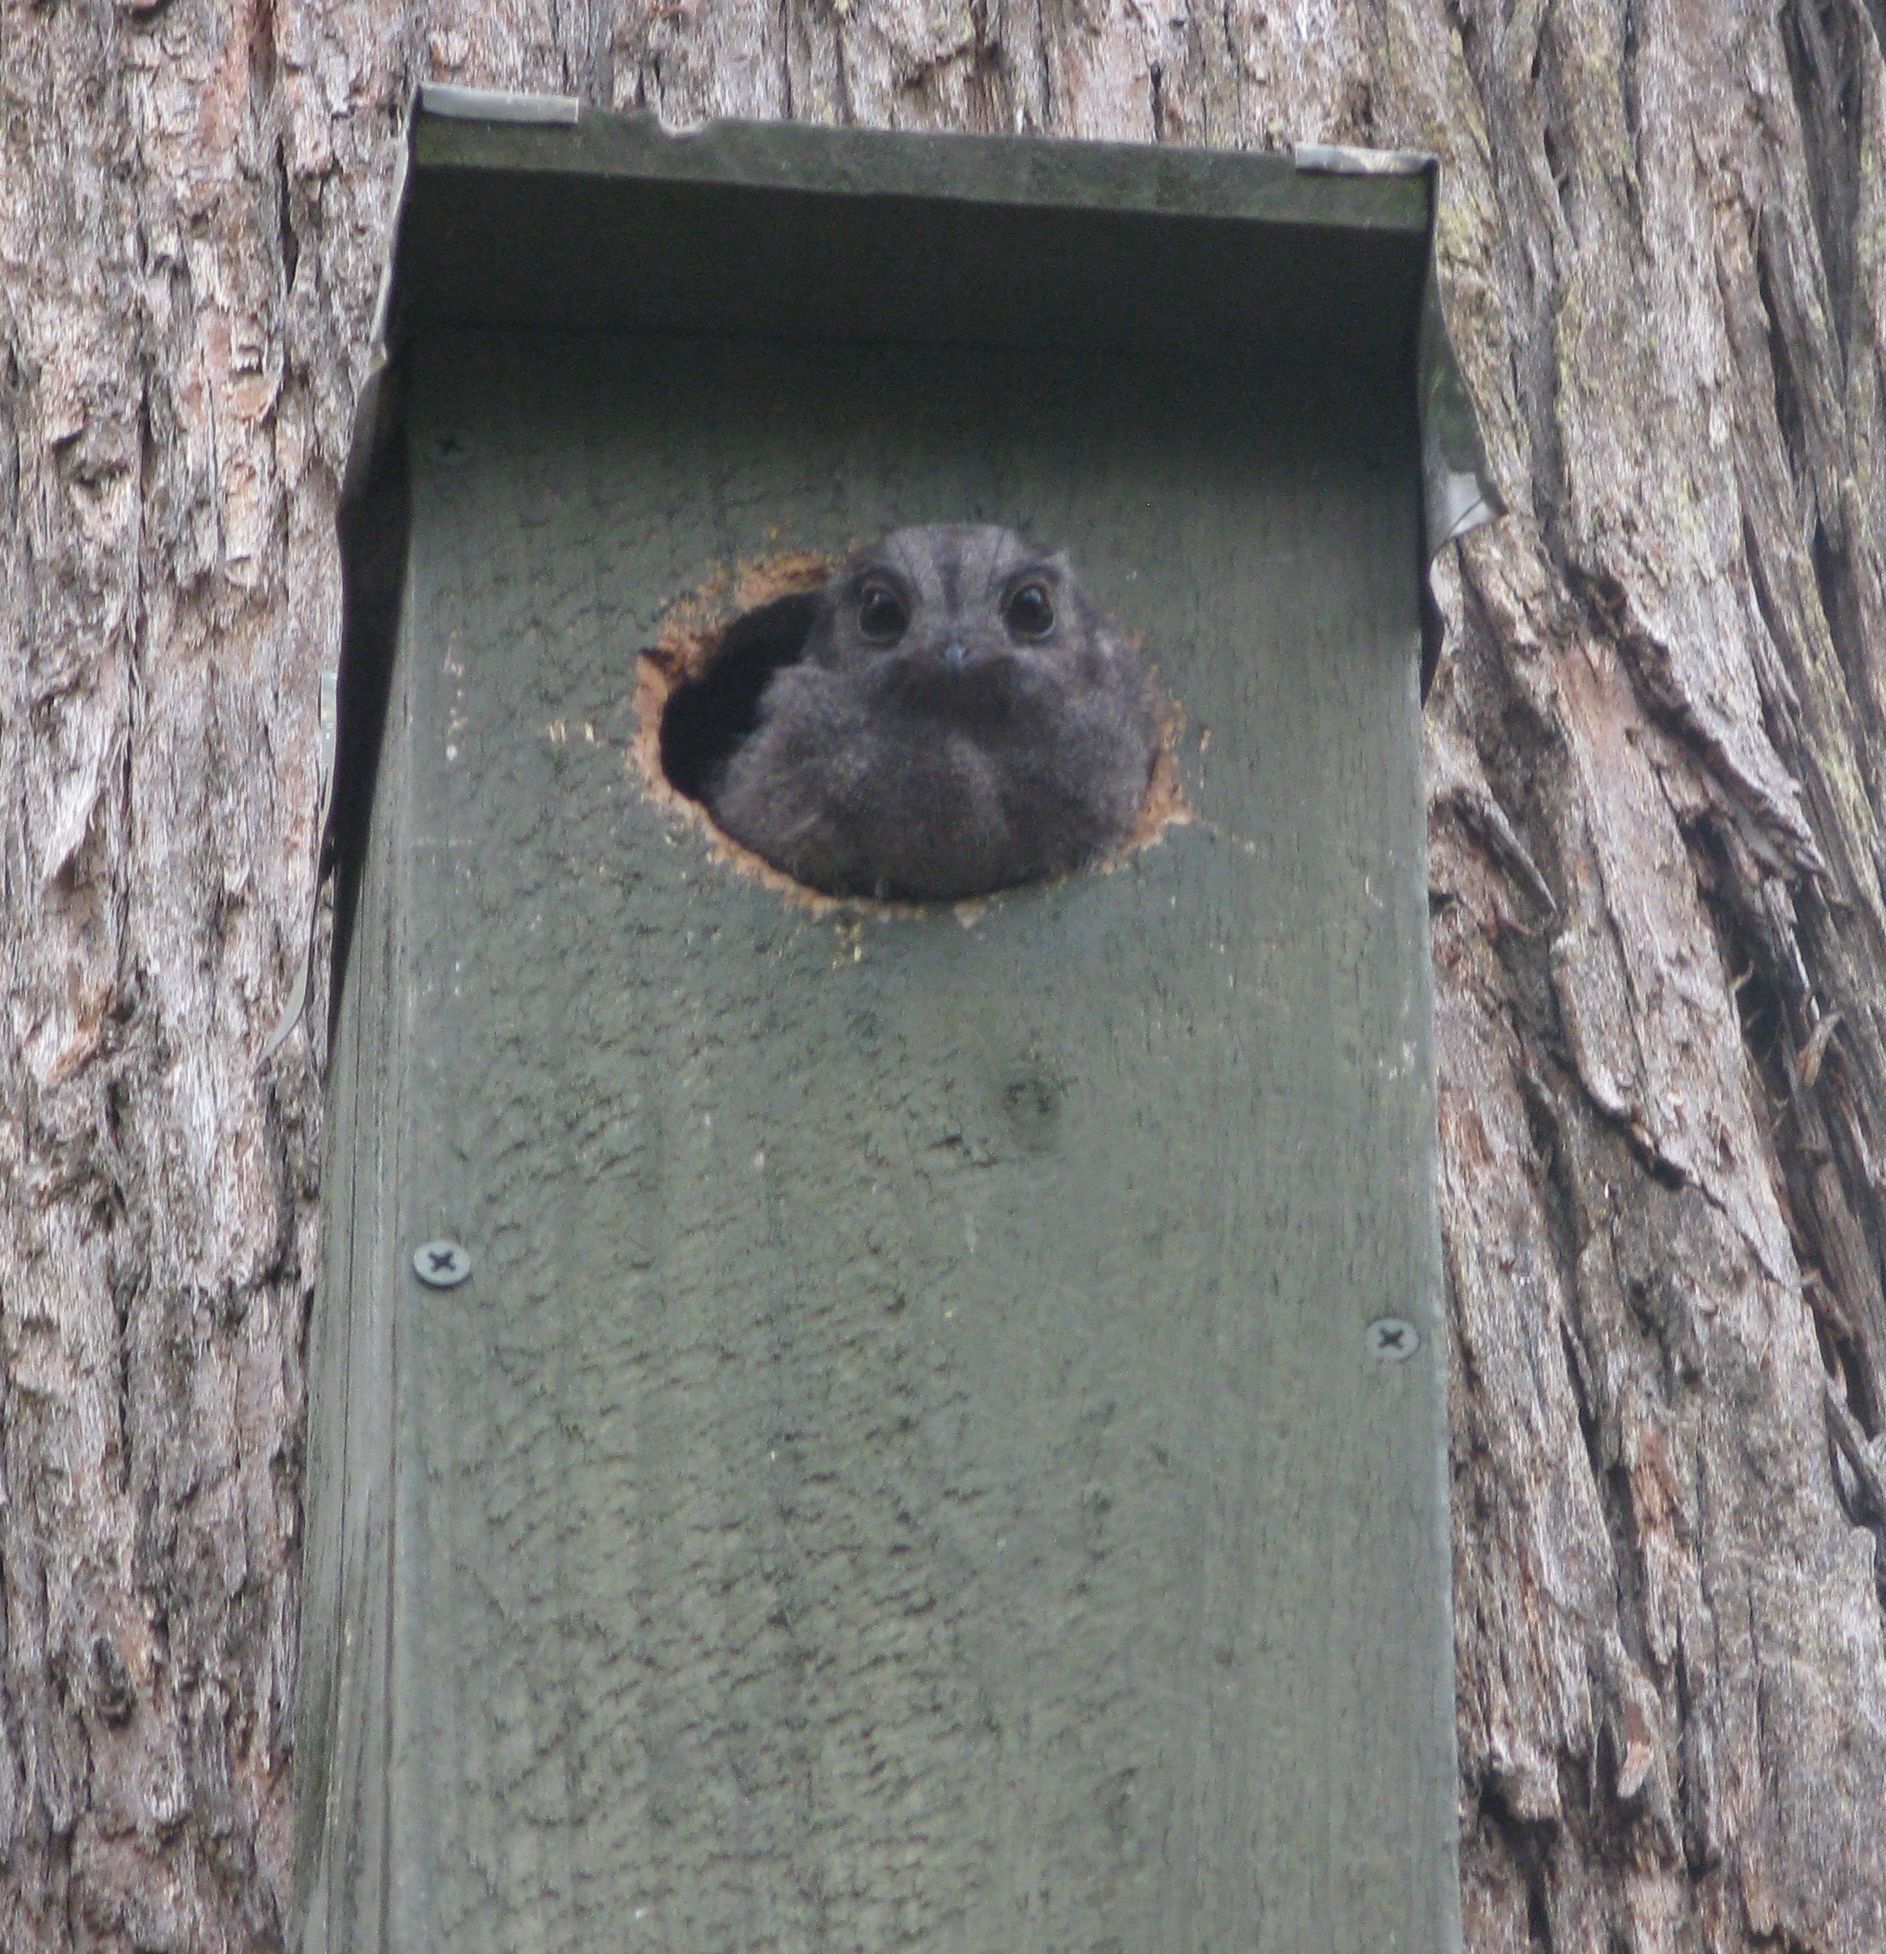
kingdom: Animalia
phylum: Chordata
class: Aves
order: Apodiformes
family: Aegothelidae
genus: Aegotheles
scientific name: Aegotheles cristatus
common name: Australian owlet-nightjar
